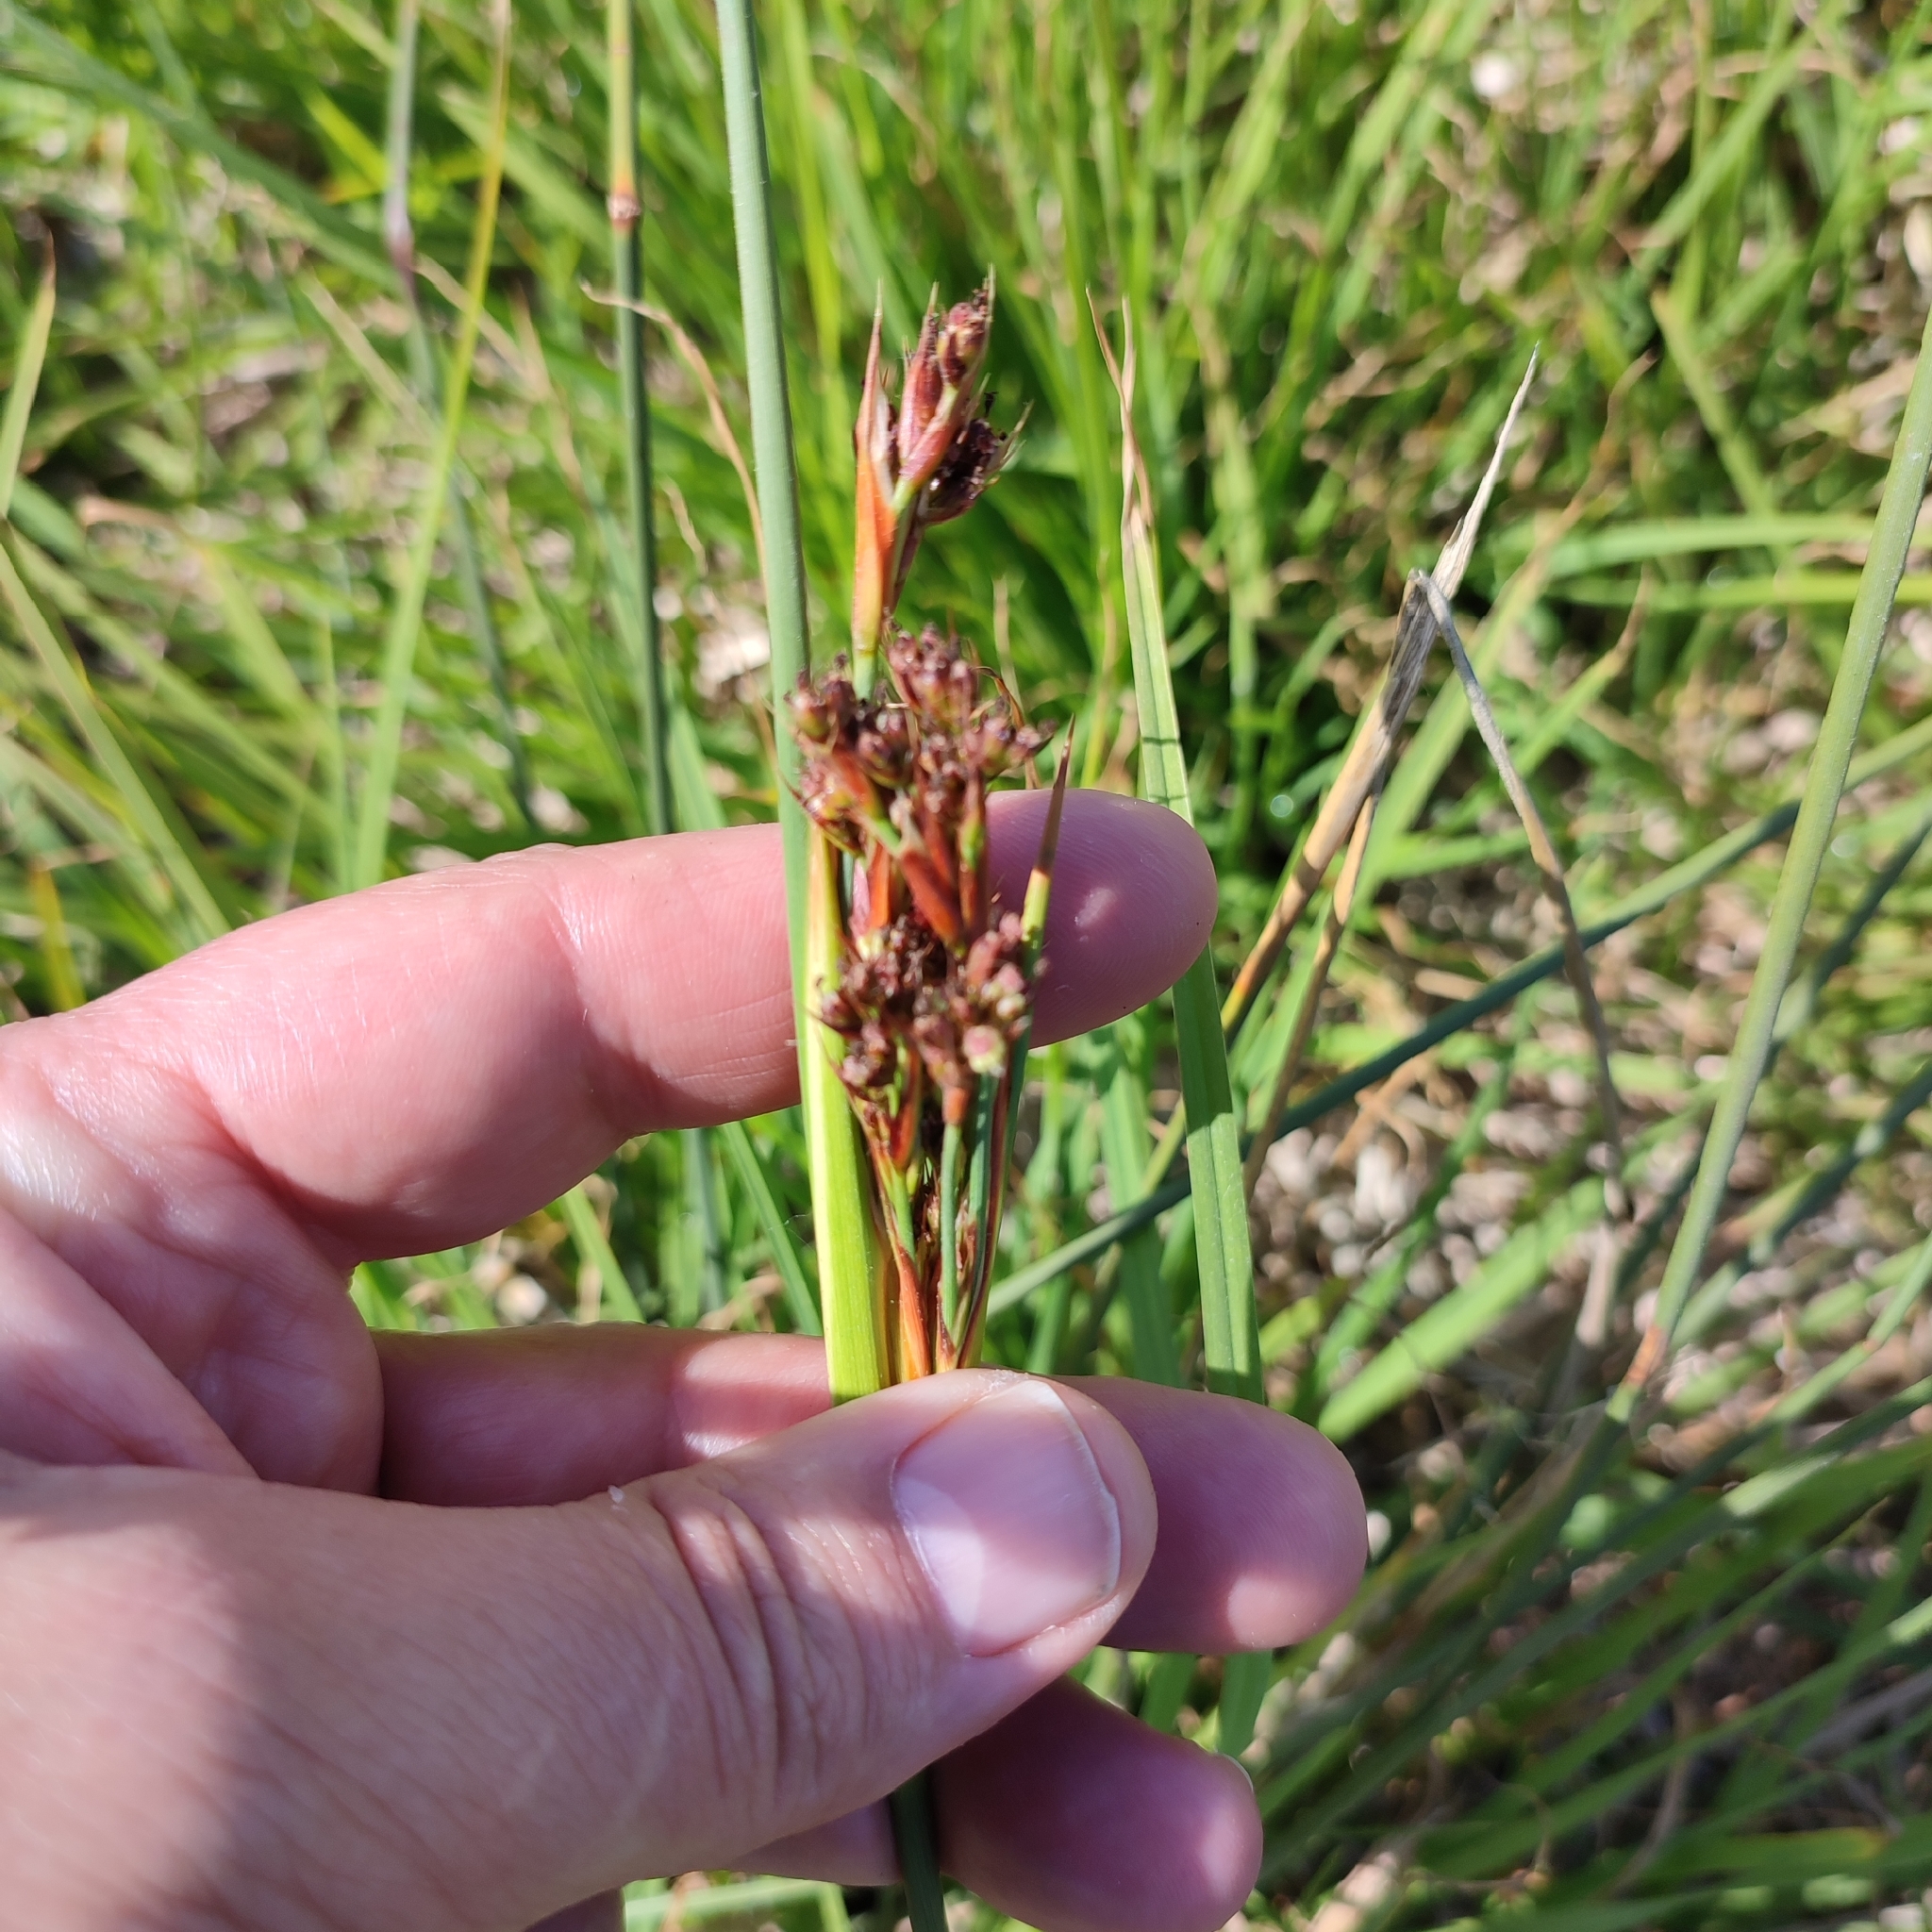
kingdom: Plantae
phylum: Tracheophyta
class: Liliopsida
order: Poales
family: Juncaceae
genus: Juncus
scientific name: Juncus acutus
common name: Sharp rush
